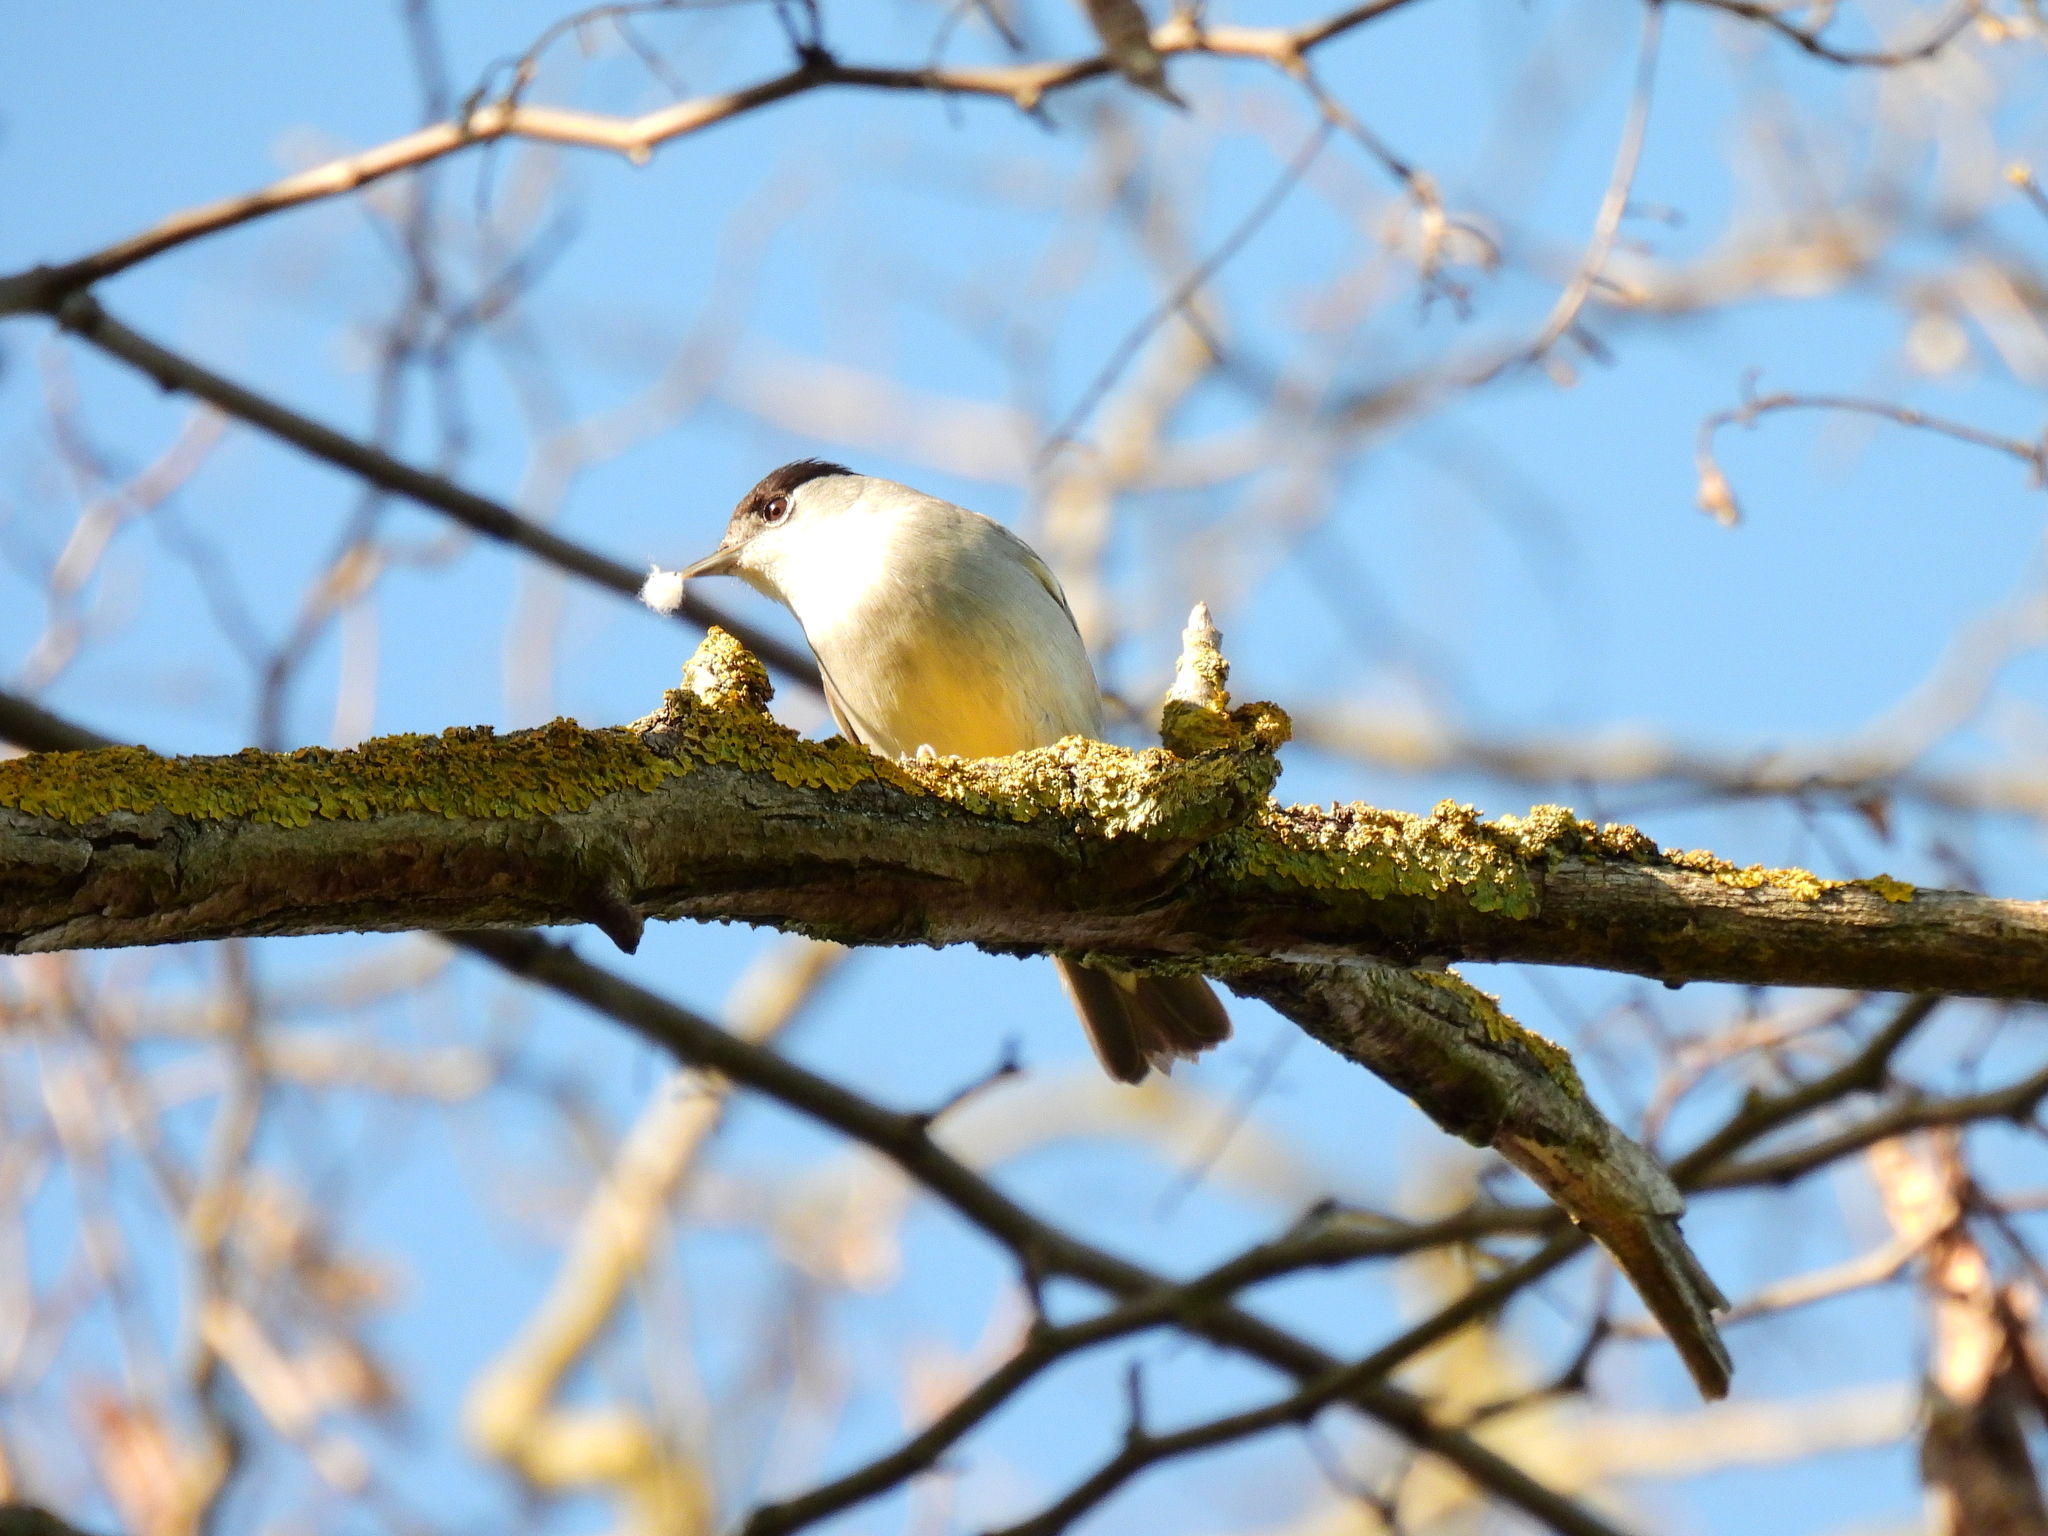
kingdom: Animalia
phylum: Chordata
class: Aves
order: Passeriformes
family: Sylviidae
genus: Sylvia
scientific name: Sylvia atricapilla
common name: Eurasian blackcap
